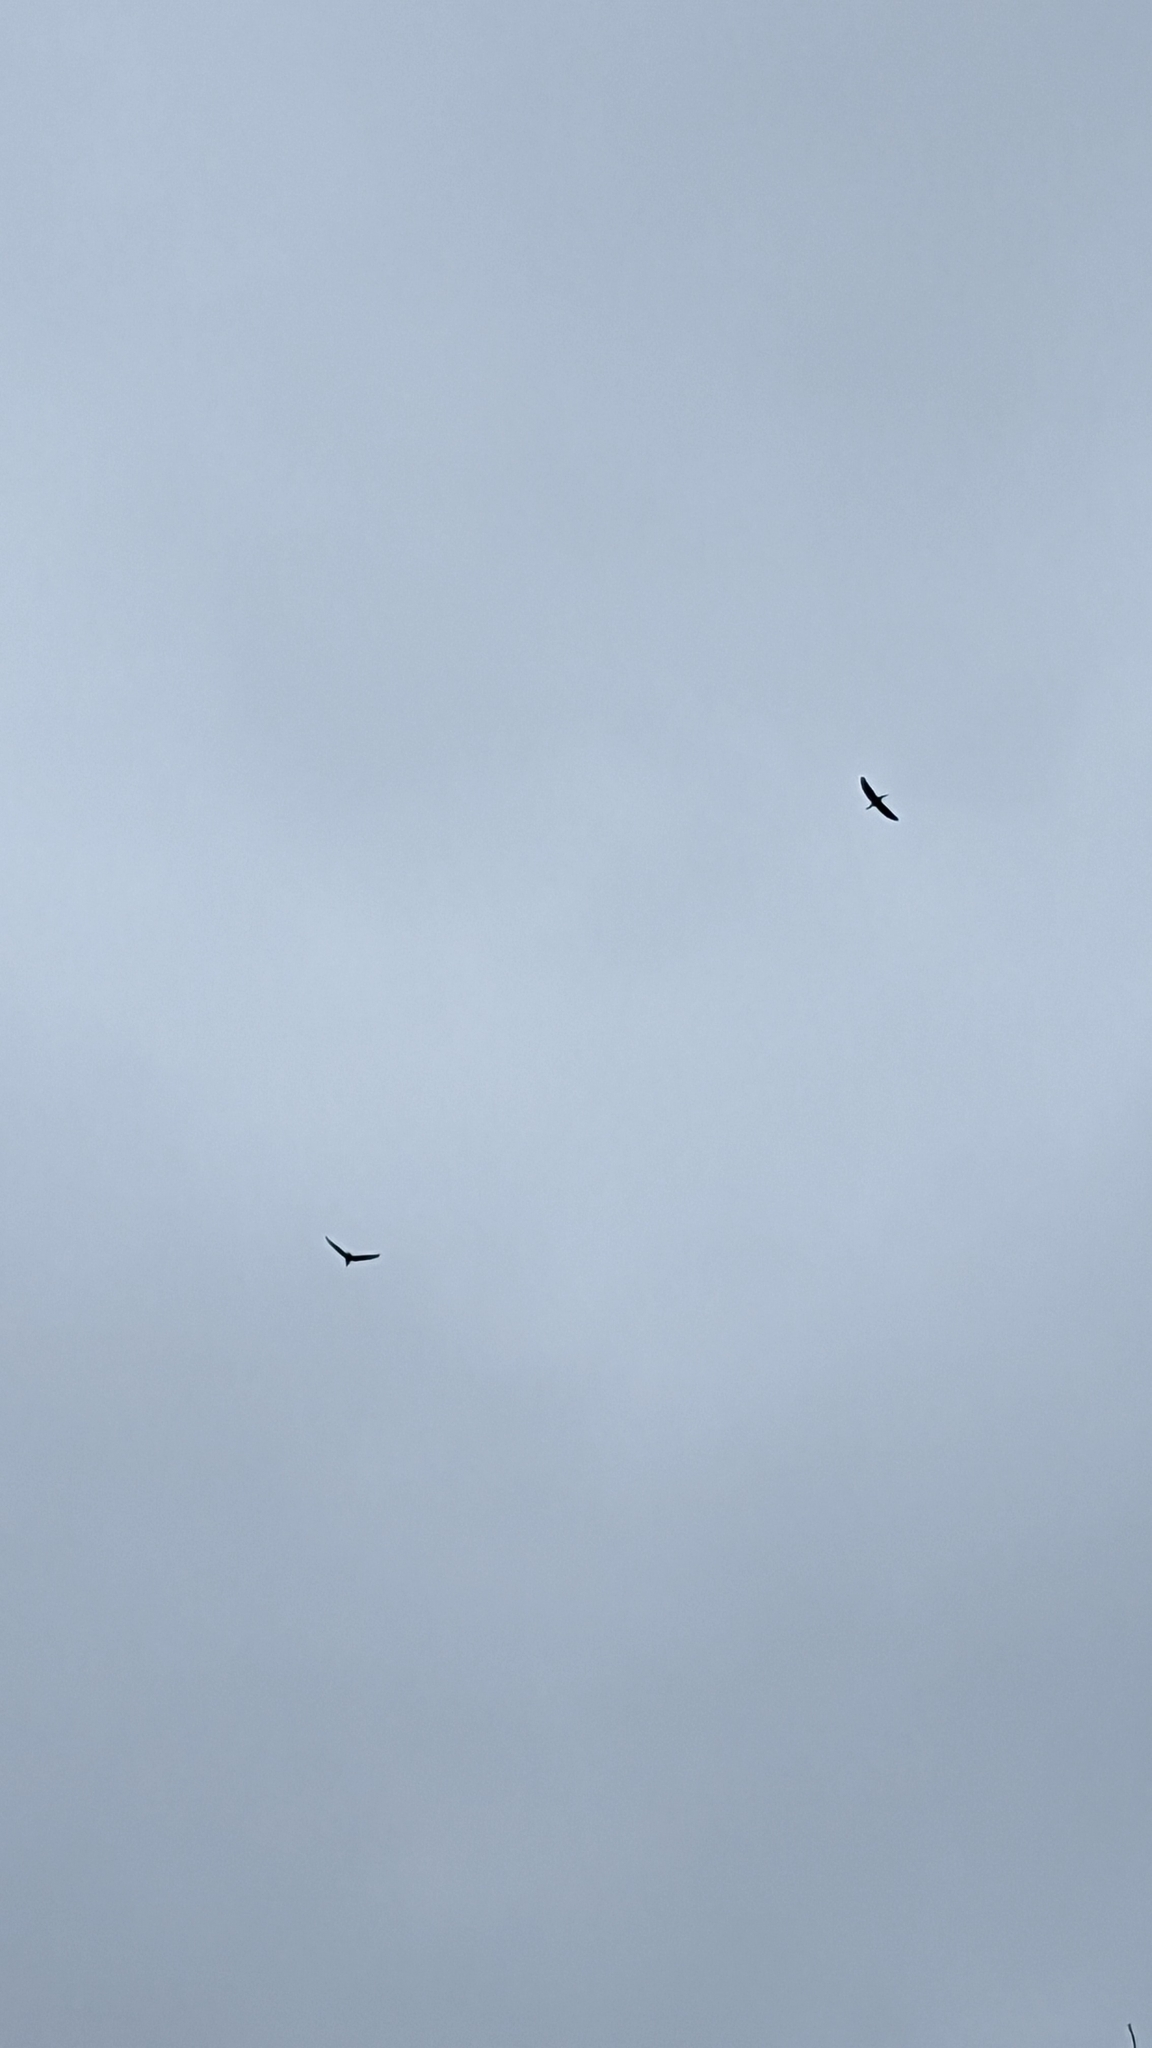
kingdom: Animalia
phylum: Chordata
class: Aves
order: Pelecaniformes
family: Ardeidae
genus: Butorides
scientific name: Butorides virescens
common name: Green heron
